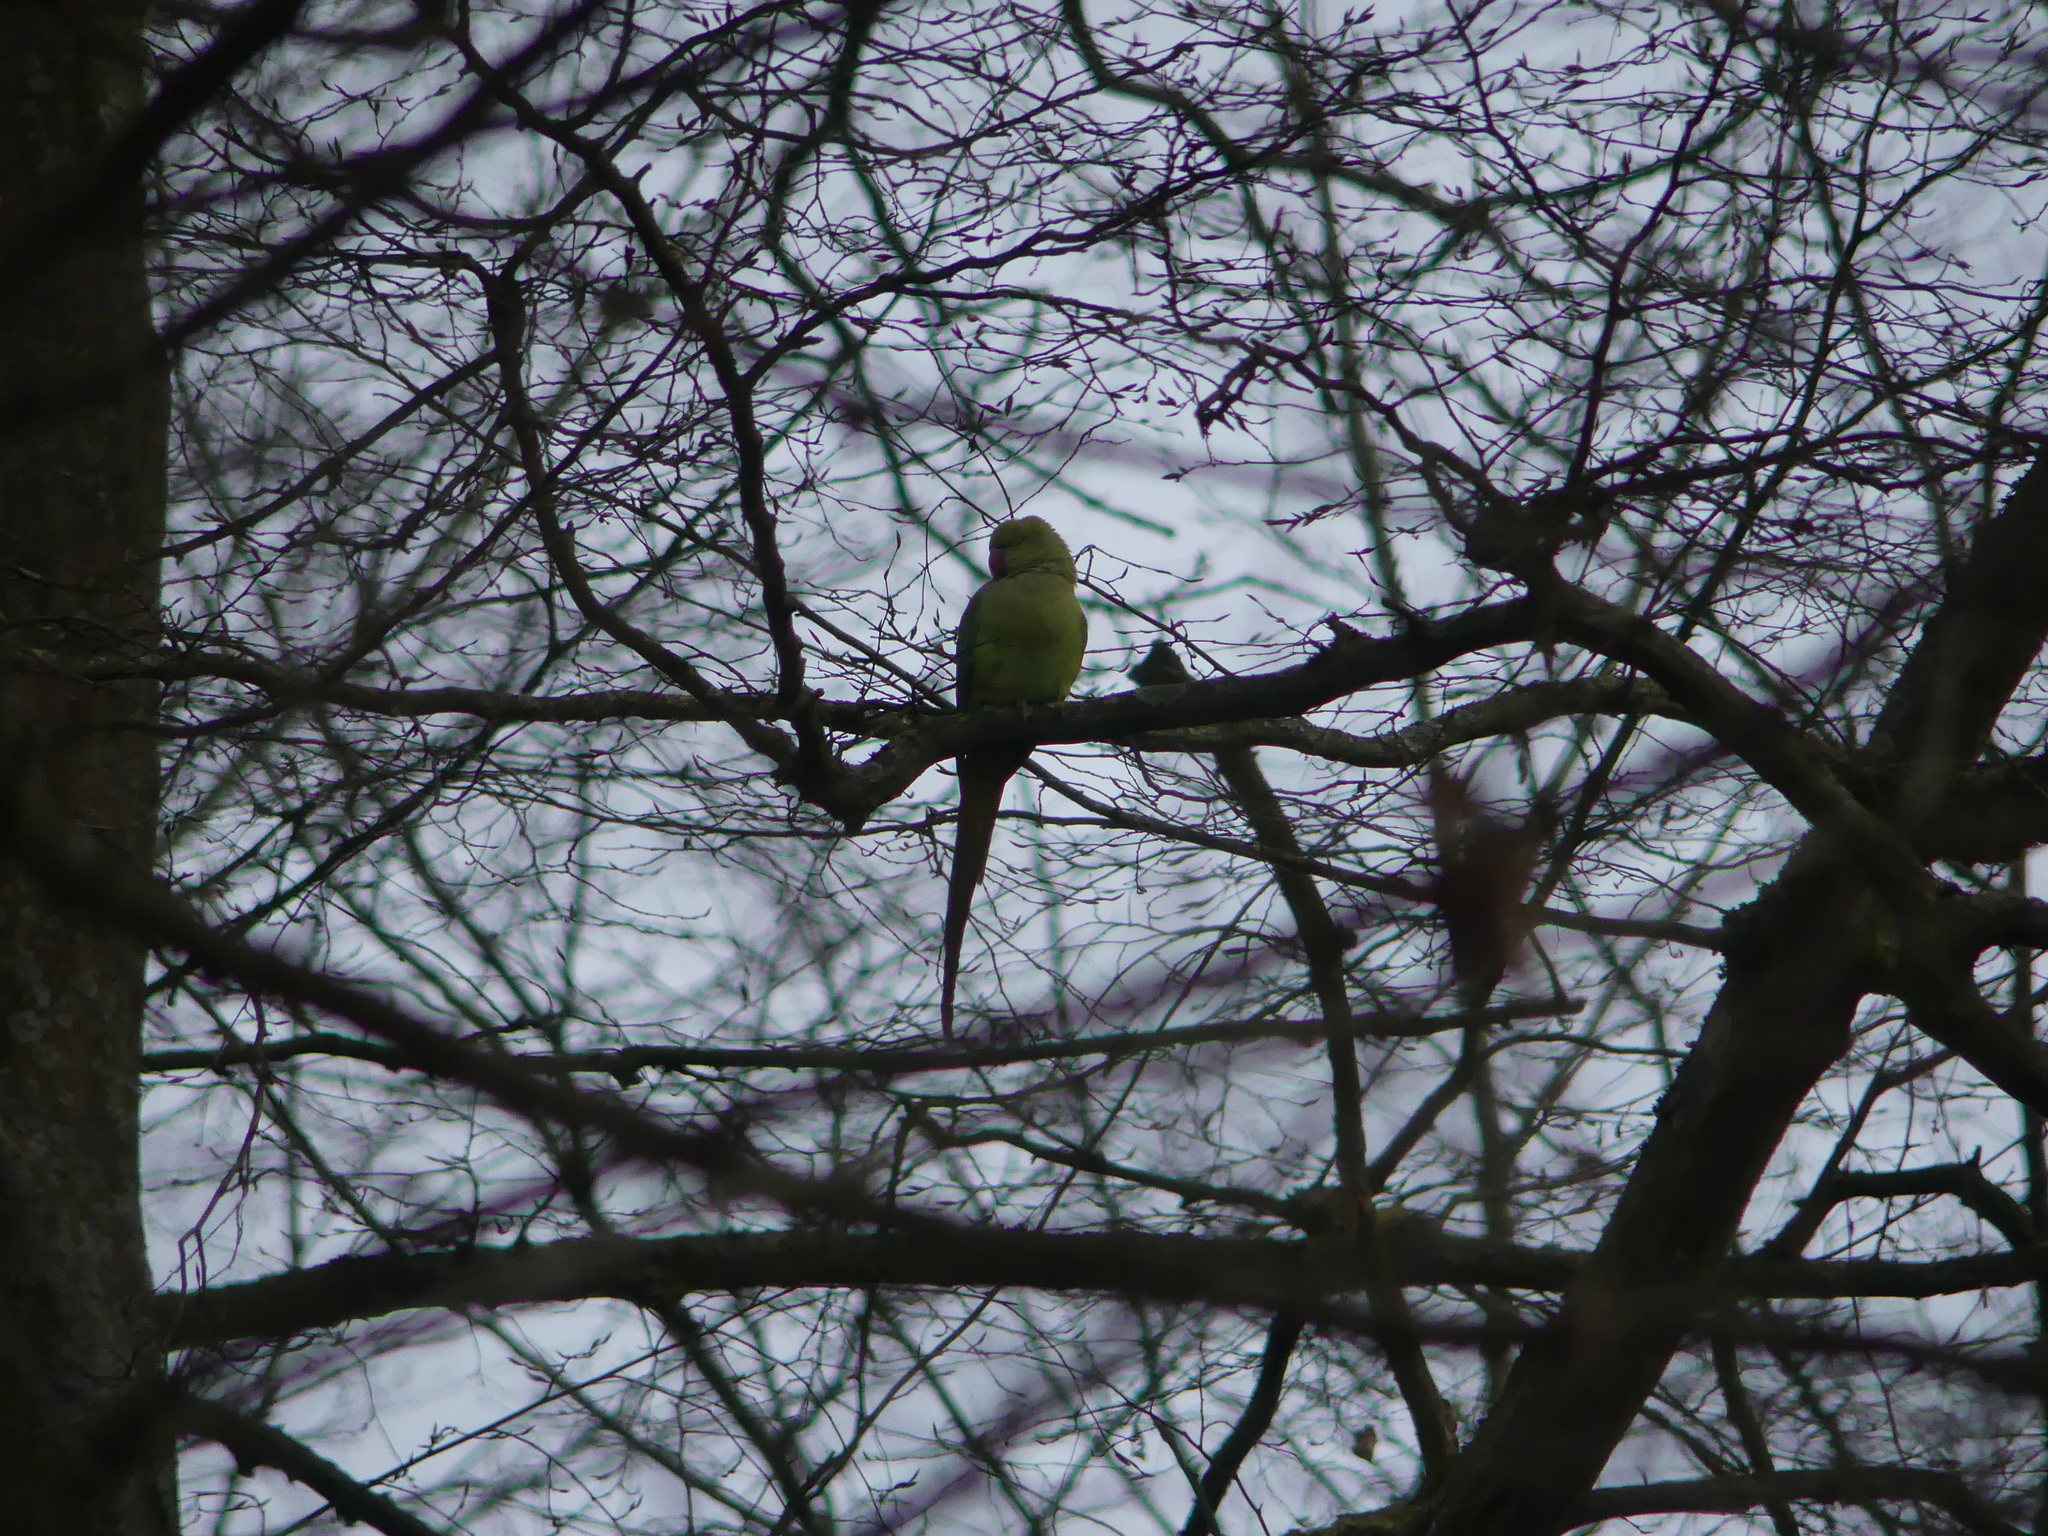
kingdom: Animalia
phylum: Chordata
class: Aves
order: Psittaciformes
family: Psittacidae
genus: Psittacula
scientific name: Psittacula krameri
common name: Rose-ringed parakeet
